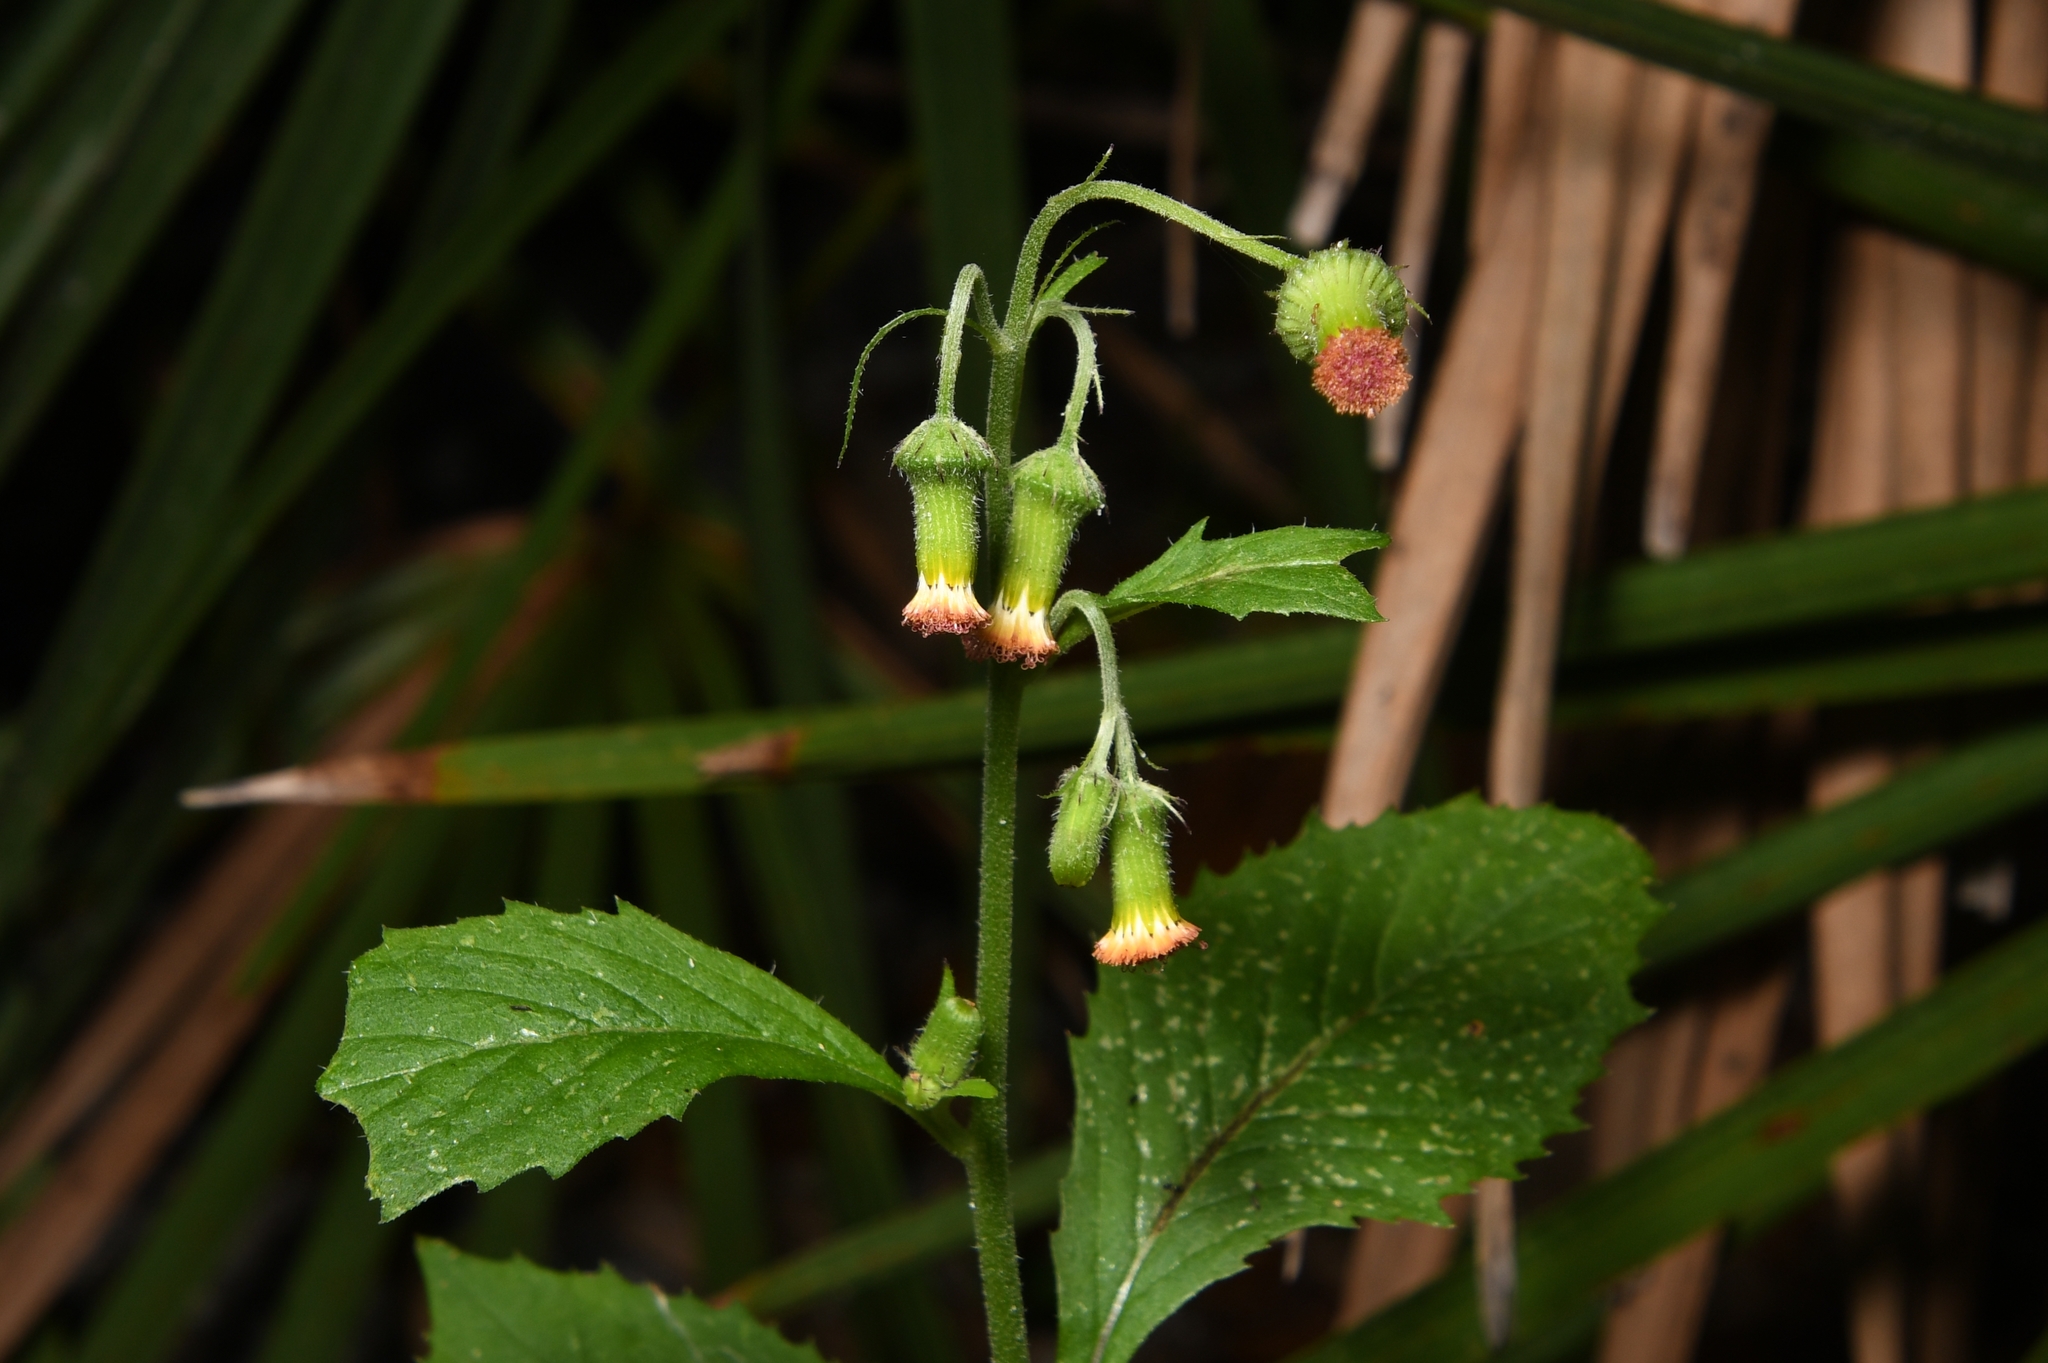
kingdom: Plantae
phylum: Tracheophyta
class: Magnoliopsida
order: Asterales
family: Asteraceae
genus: Crassocephalum
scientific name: Crassocephalum crepidioides
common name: Redflower ragleaf
